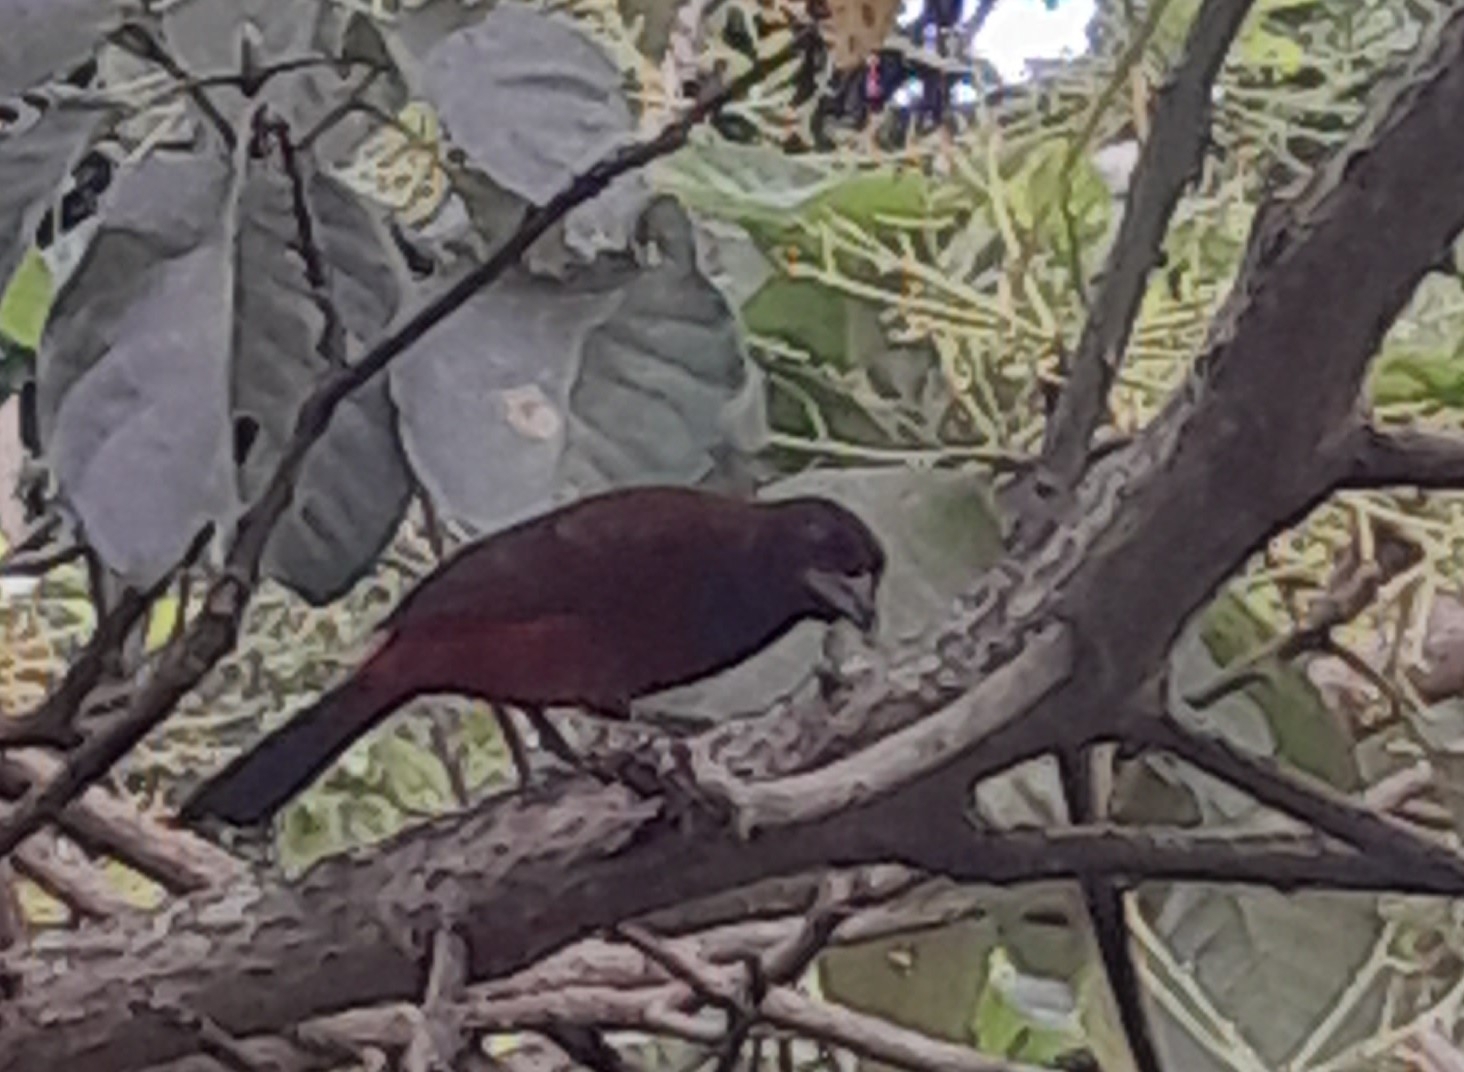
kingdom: Animalia
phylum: Chordata
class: Aves
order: Passeriformes
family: Thraupidae
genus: Ramphocelus
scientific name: Ramphocelus dimidiatus
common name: Crimson-backed tanager
